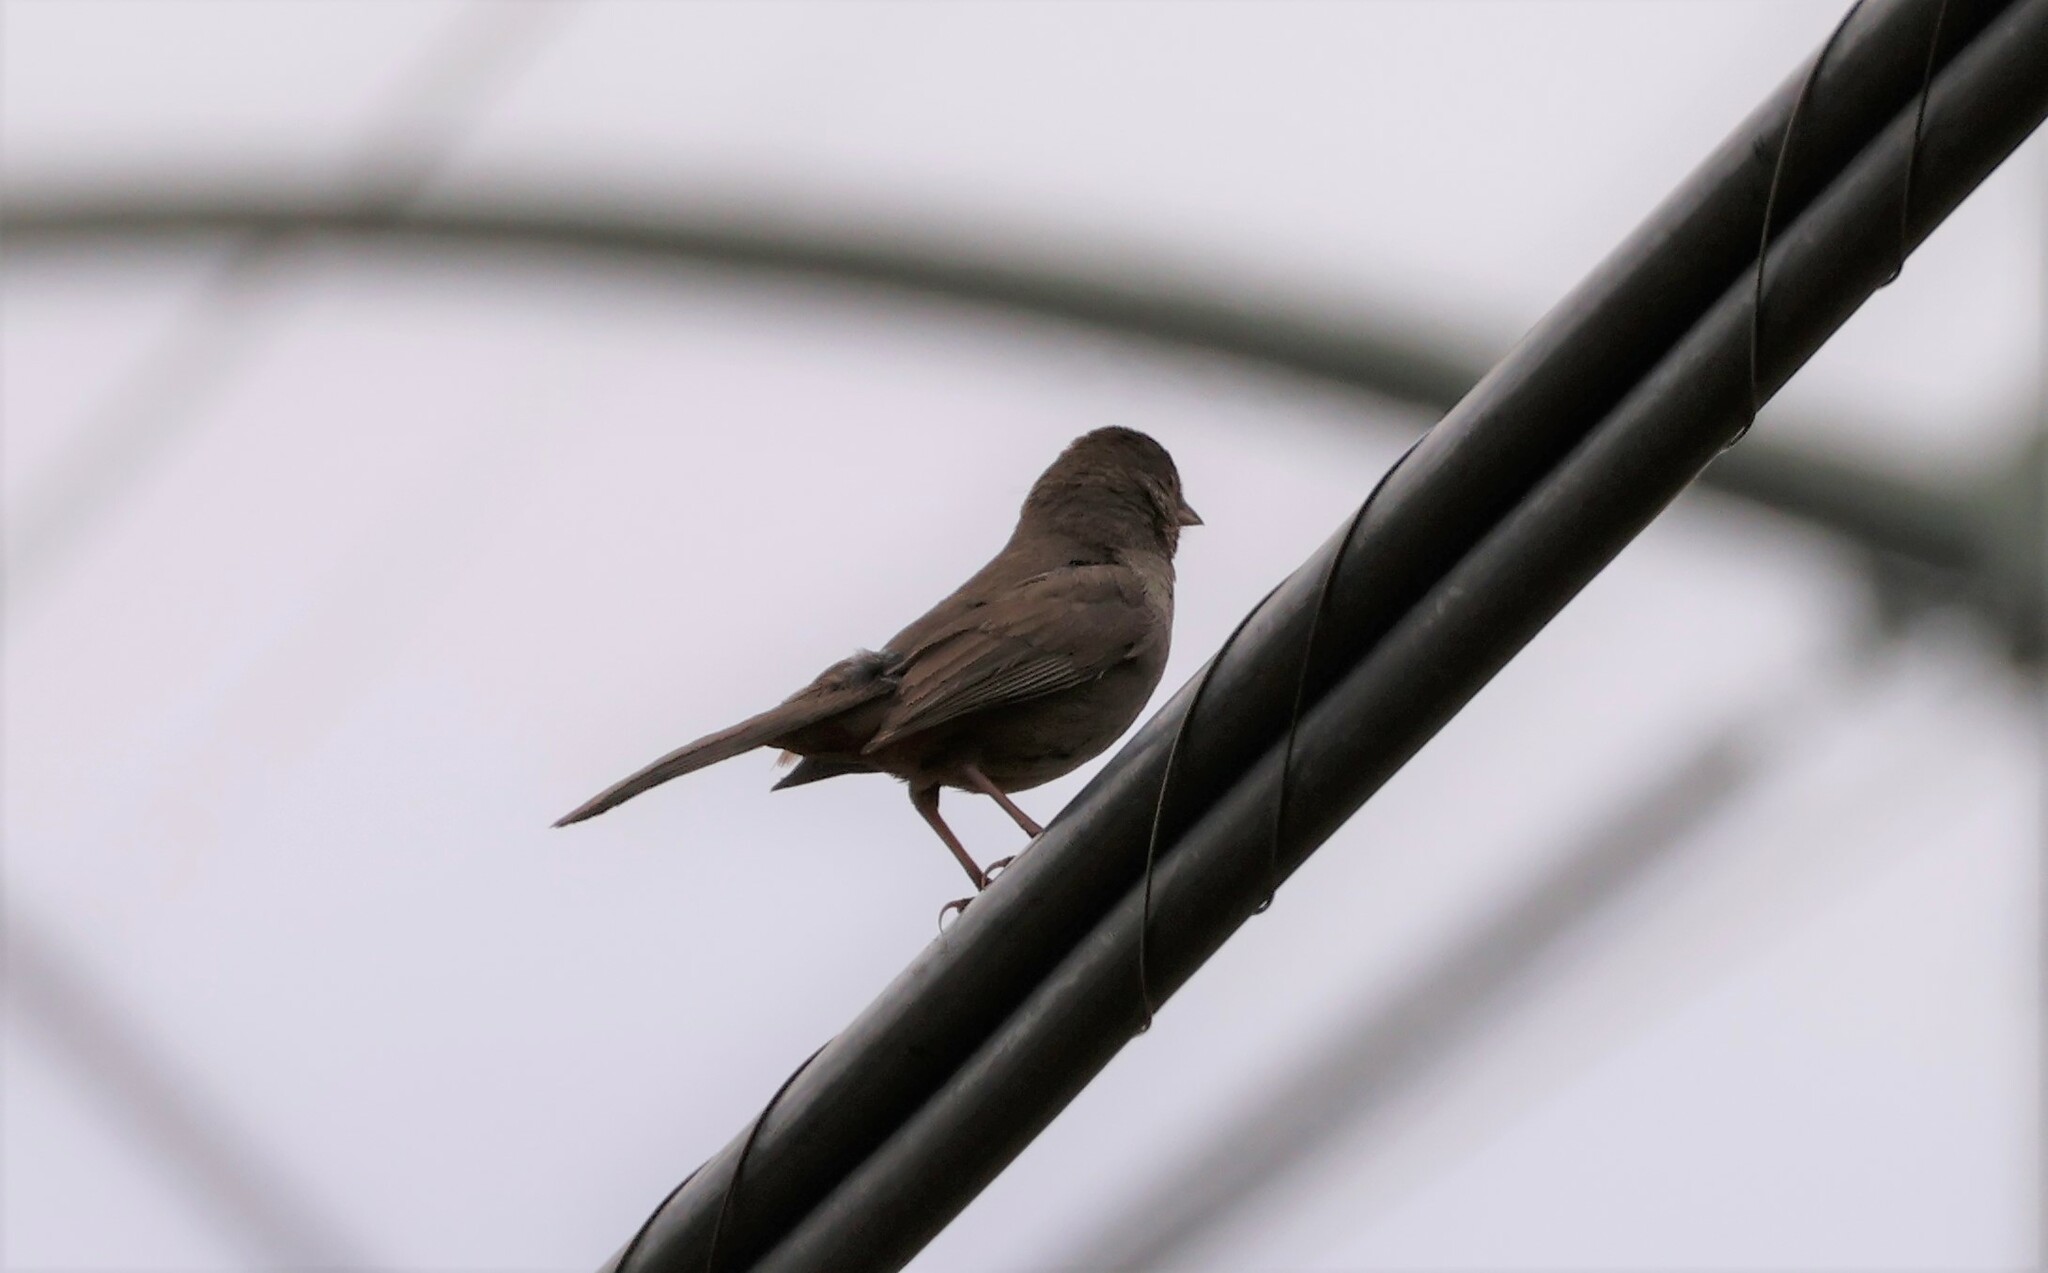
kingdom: Animalia
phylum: Chordata
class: Aves
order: Passeriformes
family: Passerellidae
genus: Melozone
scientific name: Melozone crissalis
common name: California towhee
